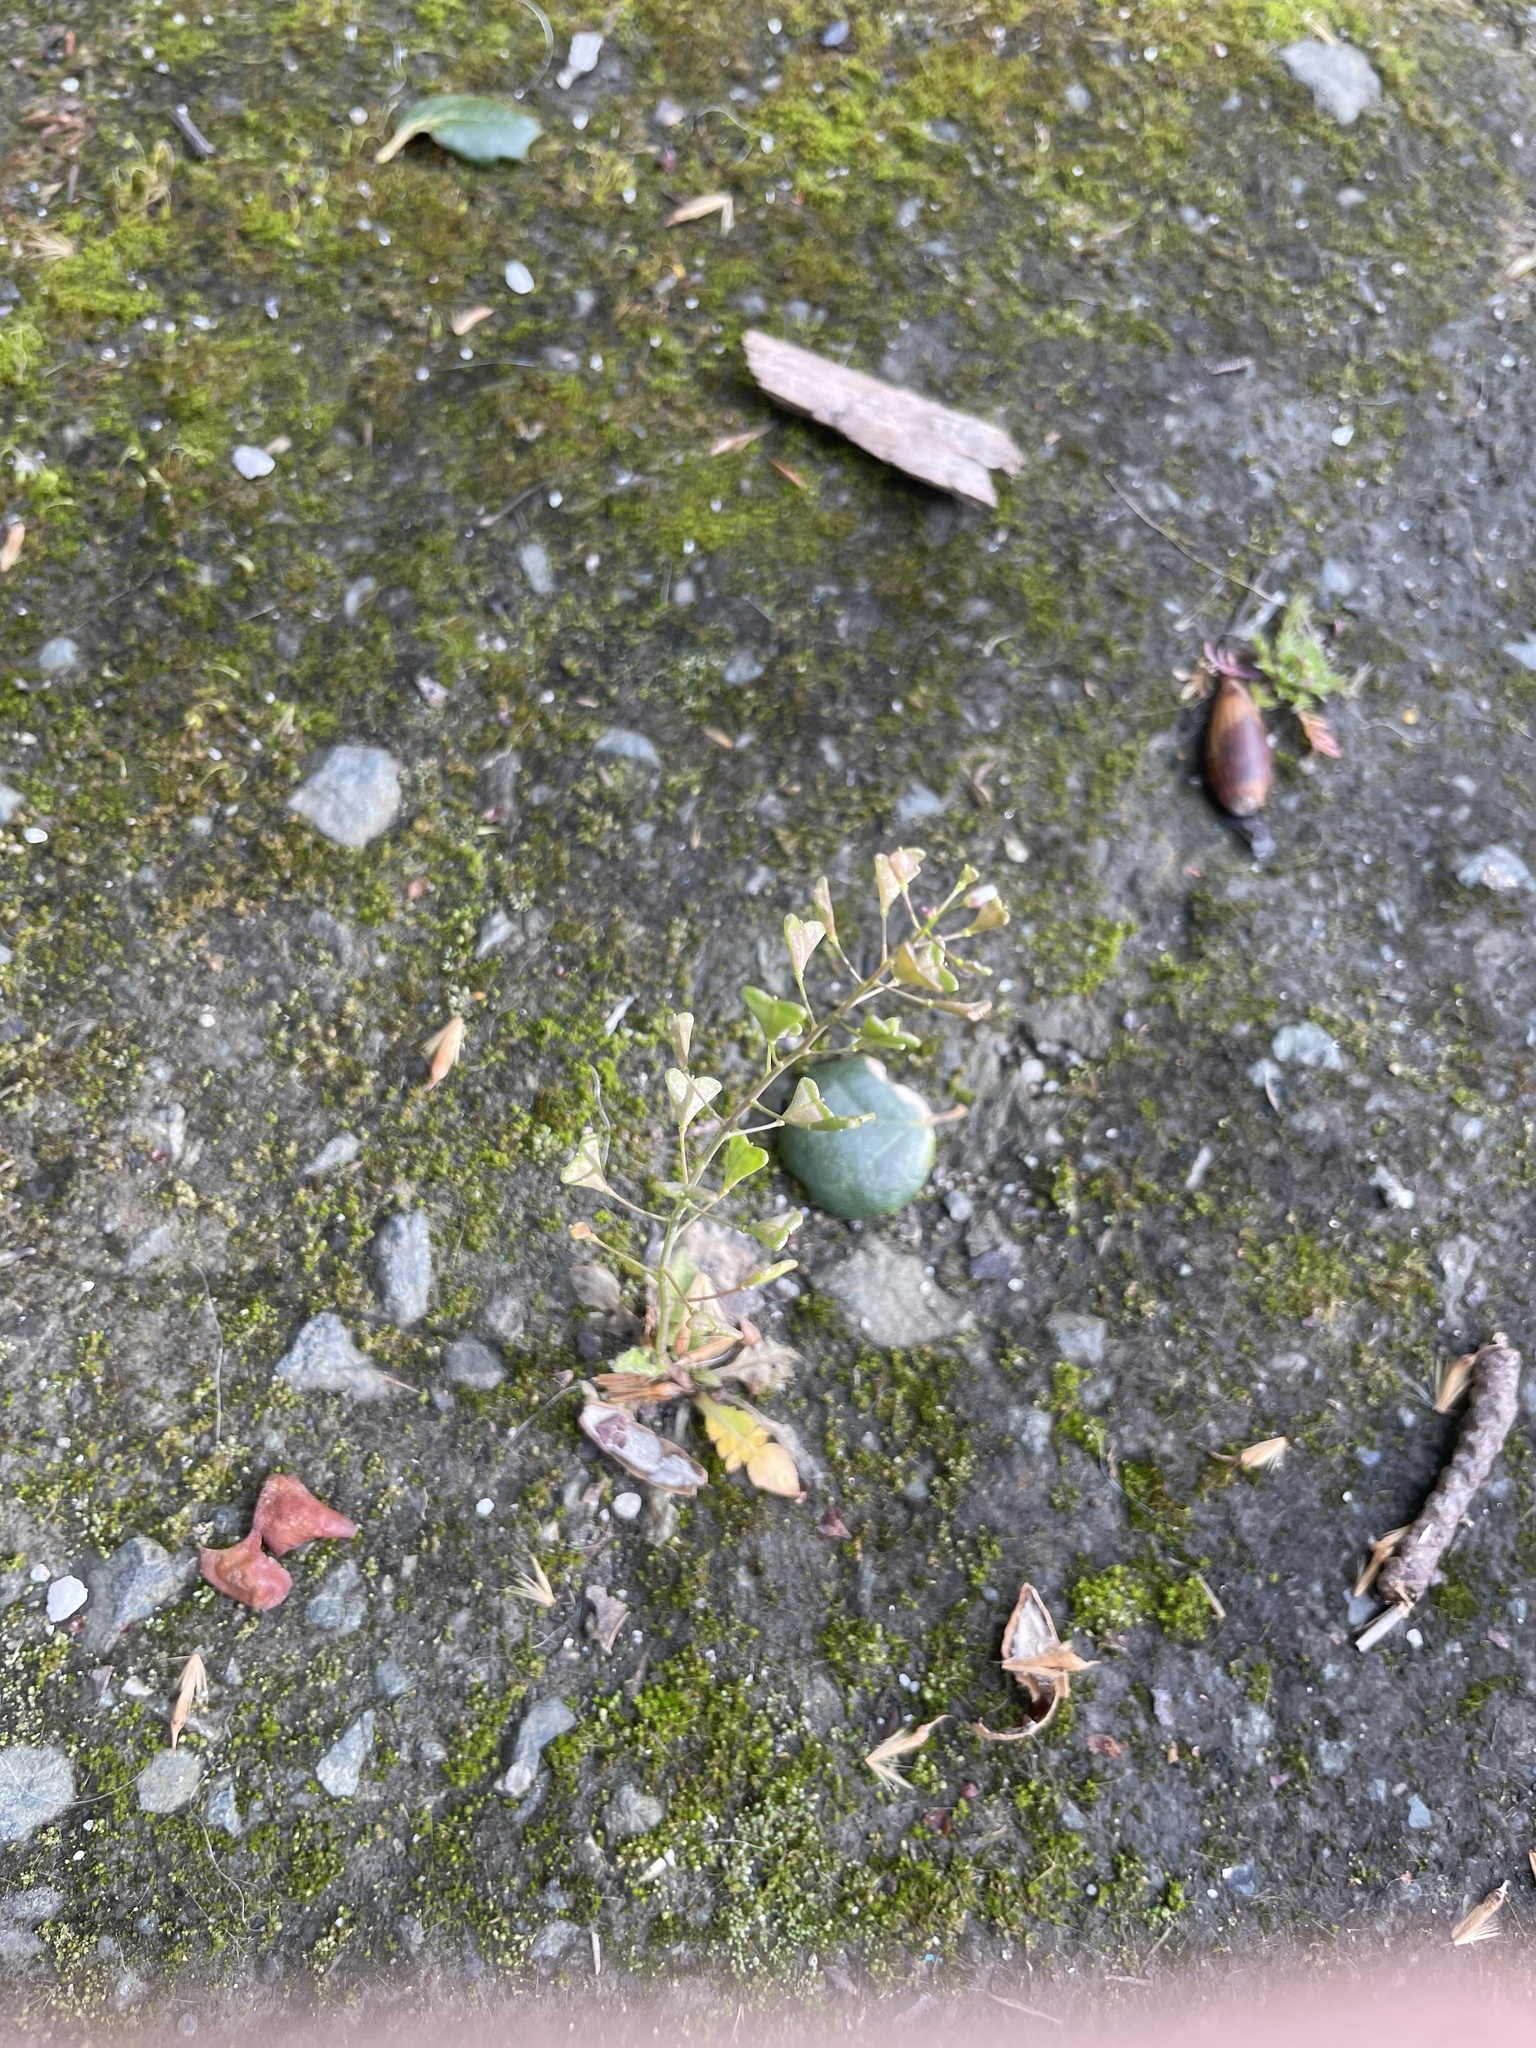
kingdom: Plantae
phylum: Tracheophyta
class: Magnoliopsida
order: Brassicales
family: Brassicaceae
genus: Capsella
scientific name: Capsella bursa-pastoris
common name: Shepherd's purse
